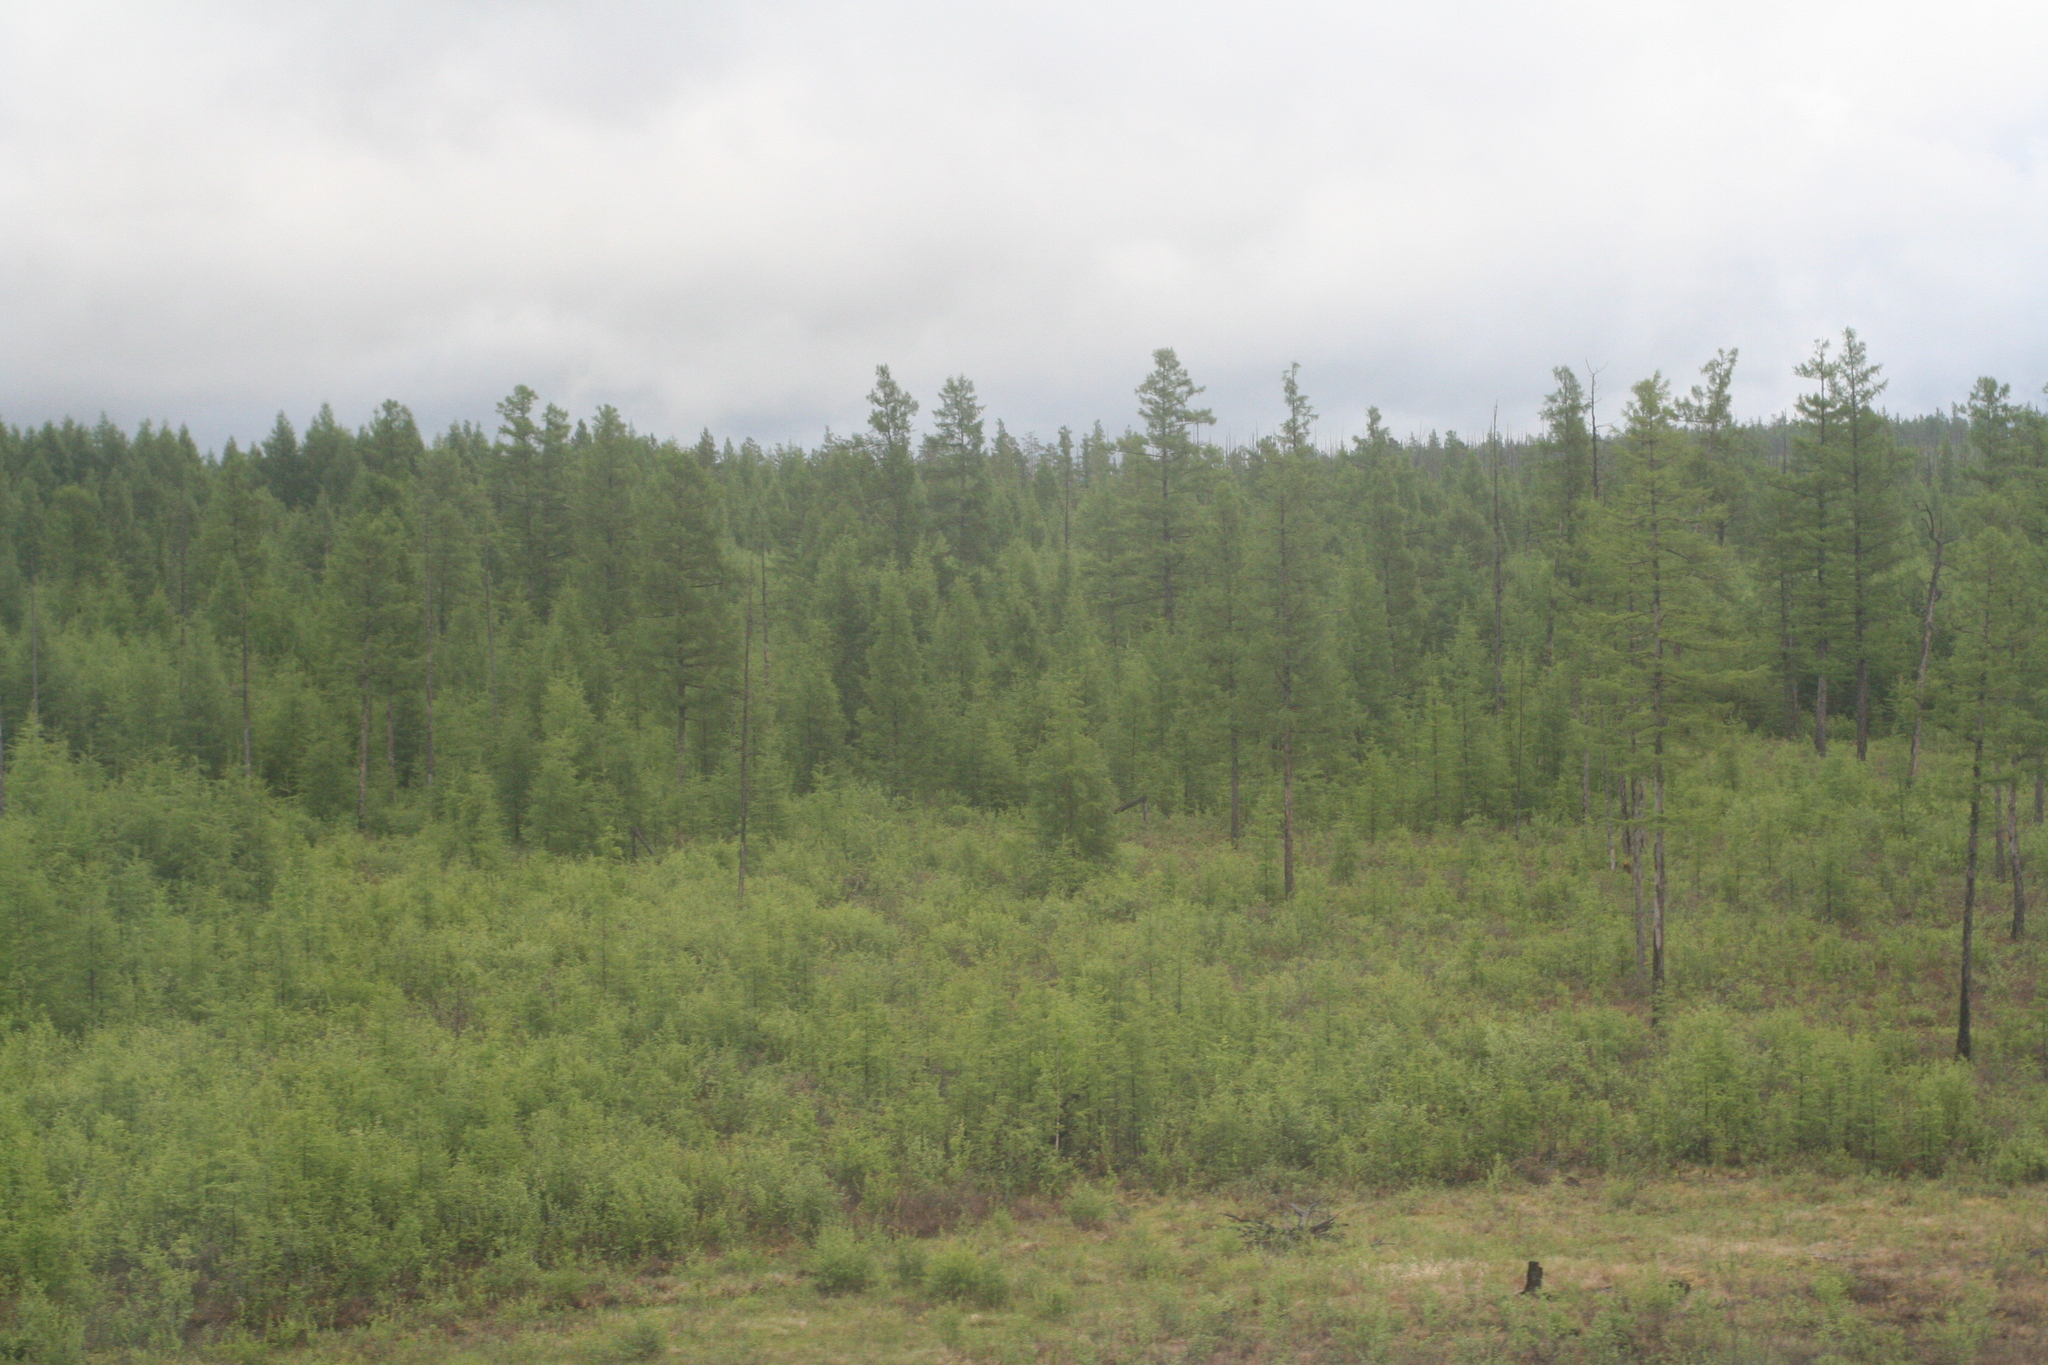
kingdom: Plantae
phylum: Tracheophyta
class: Pinopsida
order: Pinales
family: Pinaceae
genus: Larix
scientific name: Larix gmelinii
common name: Dahurian larch
